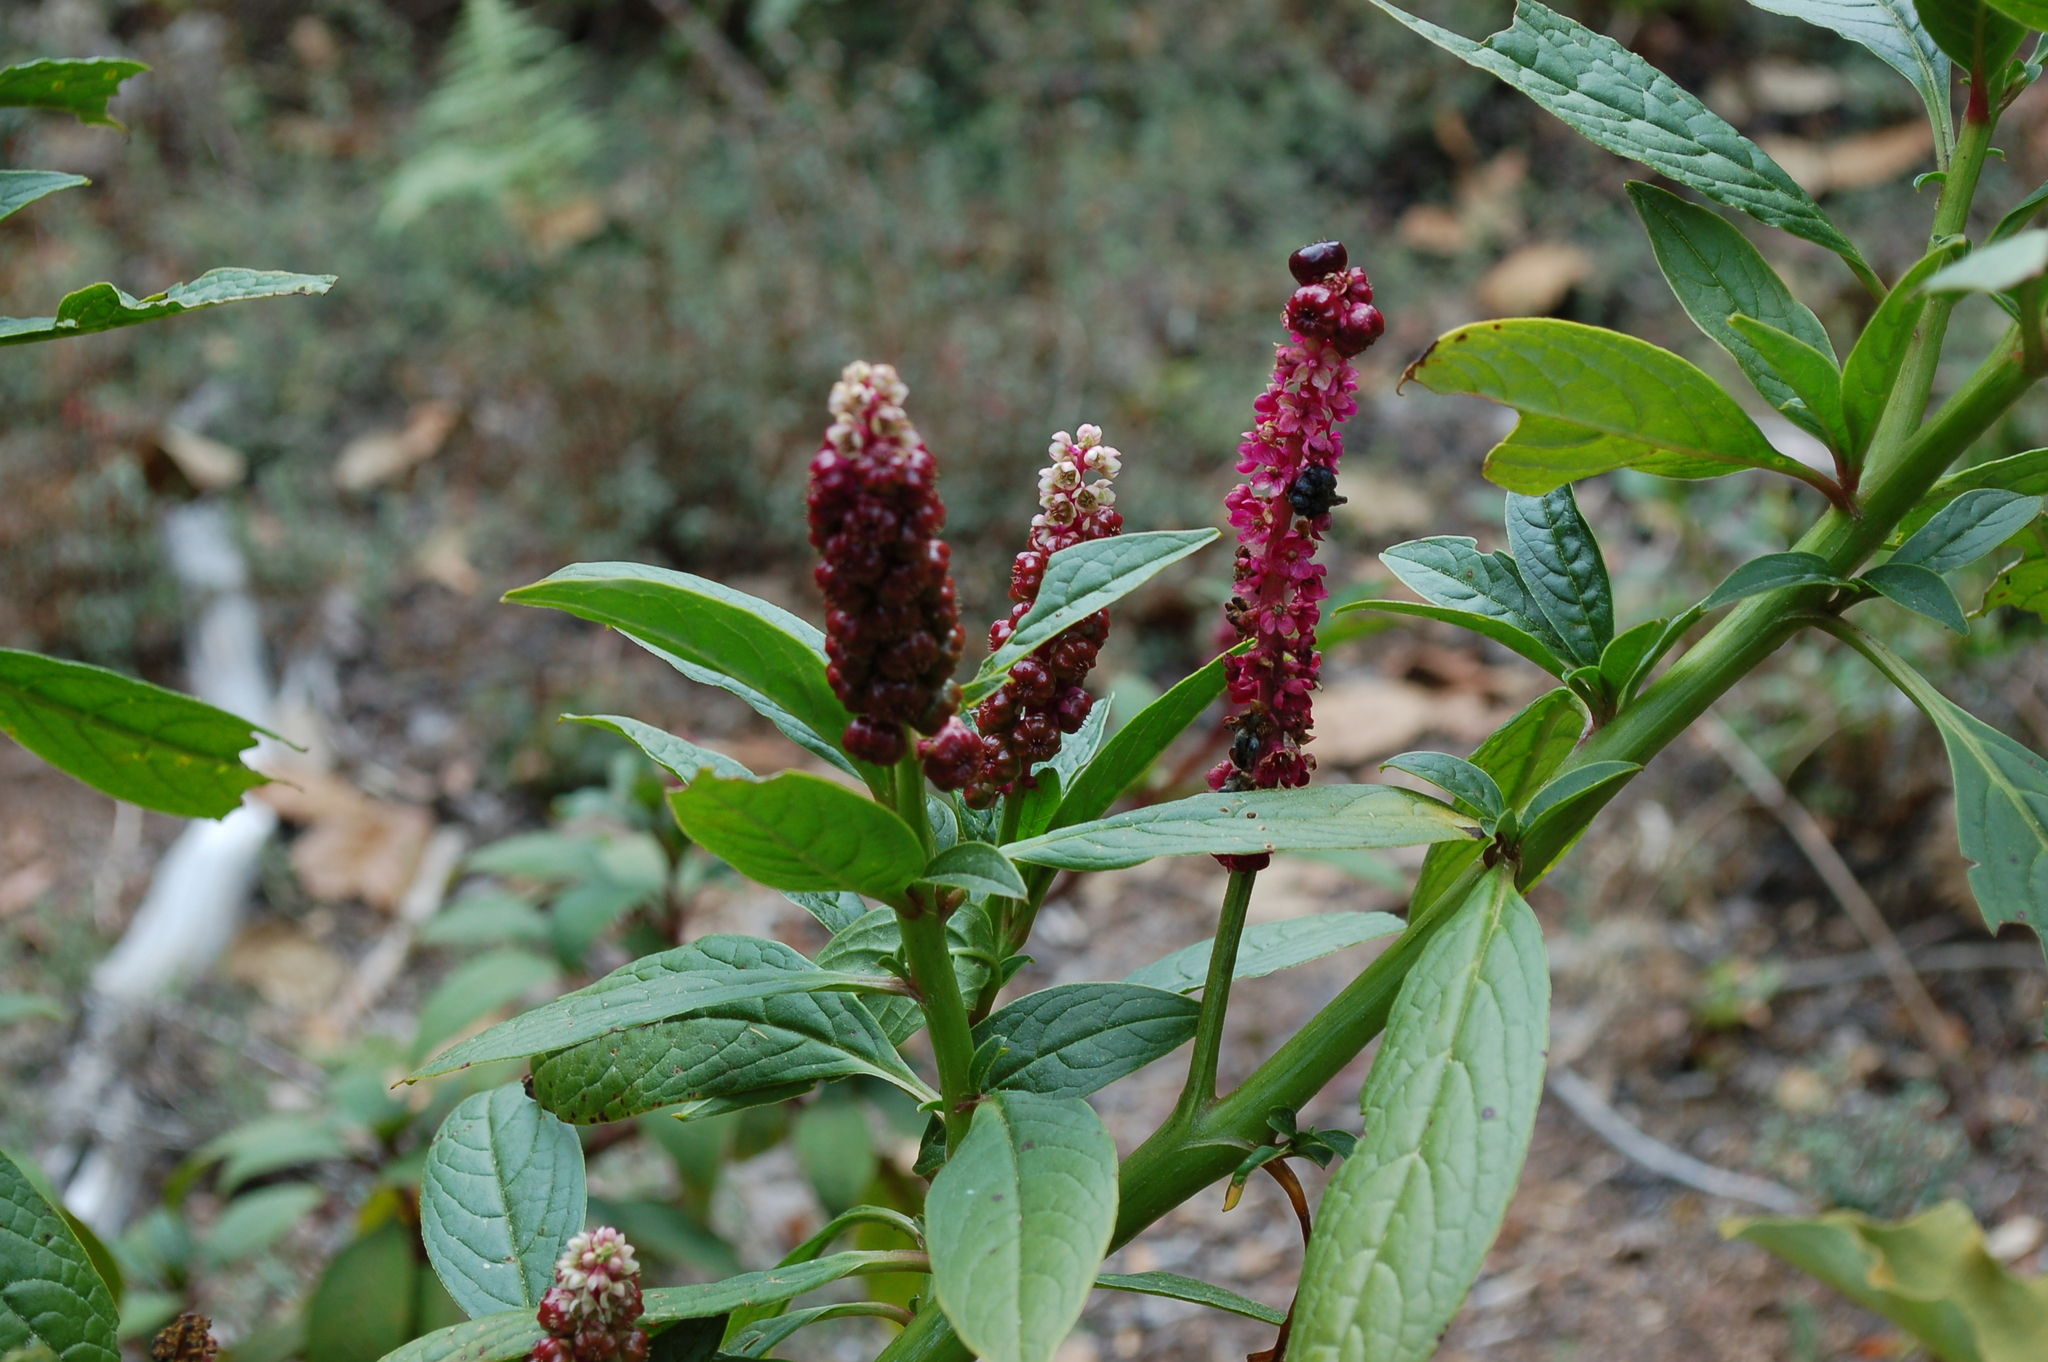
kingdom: Plantae
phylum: Tracheophyta
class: Magnoliopsida
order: Caryophyllales
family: Phytolaccaceae
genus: Phytolacca
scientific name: Phytolacca icosandra
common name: Button pokeweed
